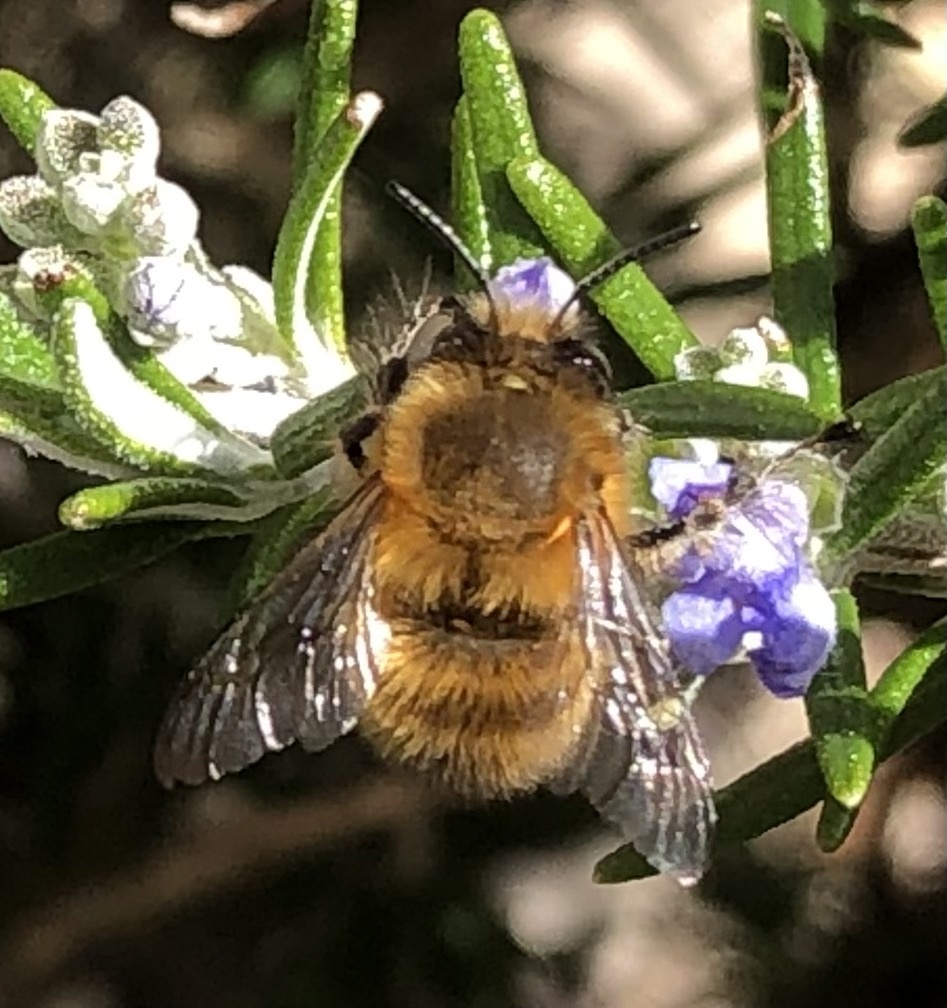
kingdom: Animalia
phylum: Arthropoda
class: Insecta
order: Hymenoptera
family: Apidae
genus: Anthophora
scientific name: Anthophora plumipes
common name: Hairy-footed flower bee
